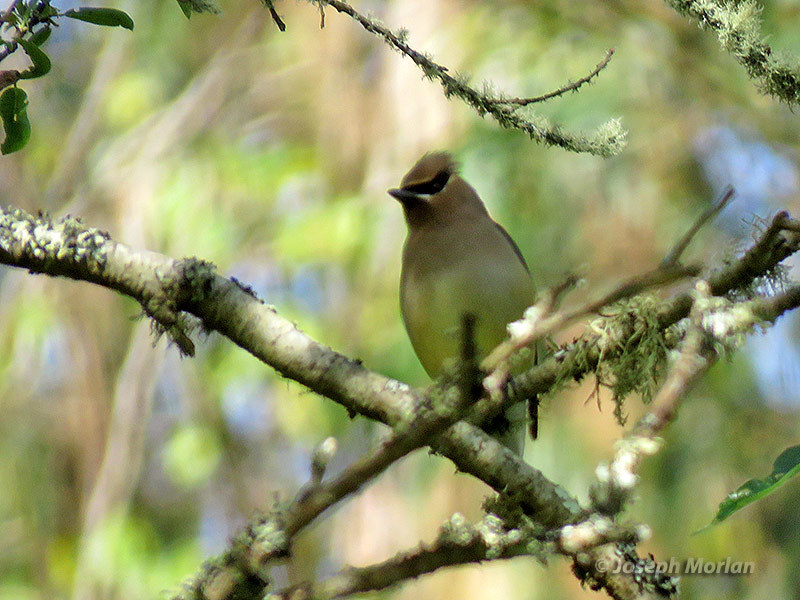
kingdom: Animalia
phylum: Chordata
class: Aves
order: Passeriformes
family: Bombycillidae
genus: Bombycilla
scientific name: Bombycilla cedrorum
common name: Cedar waxwing
